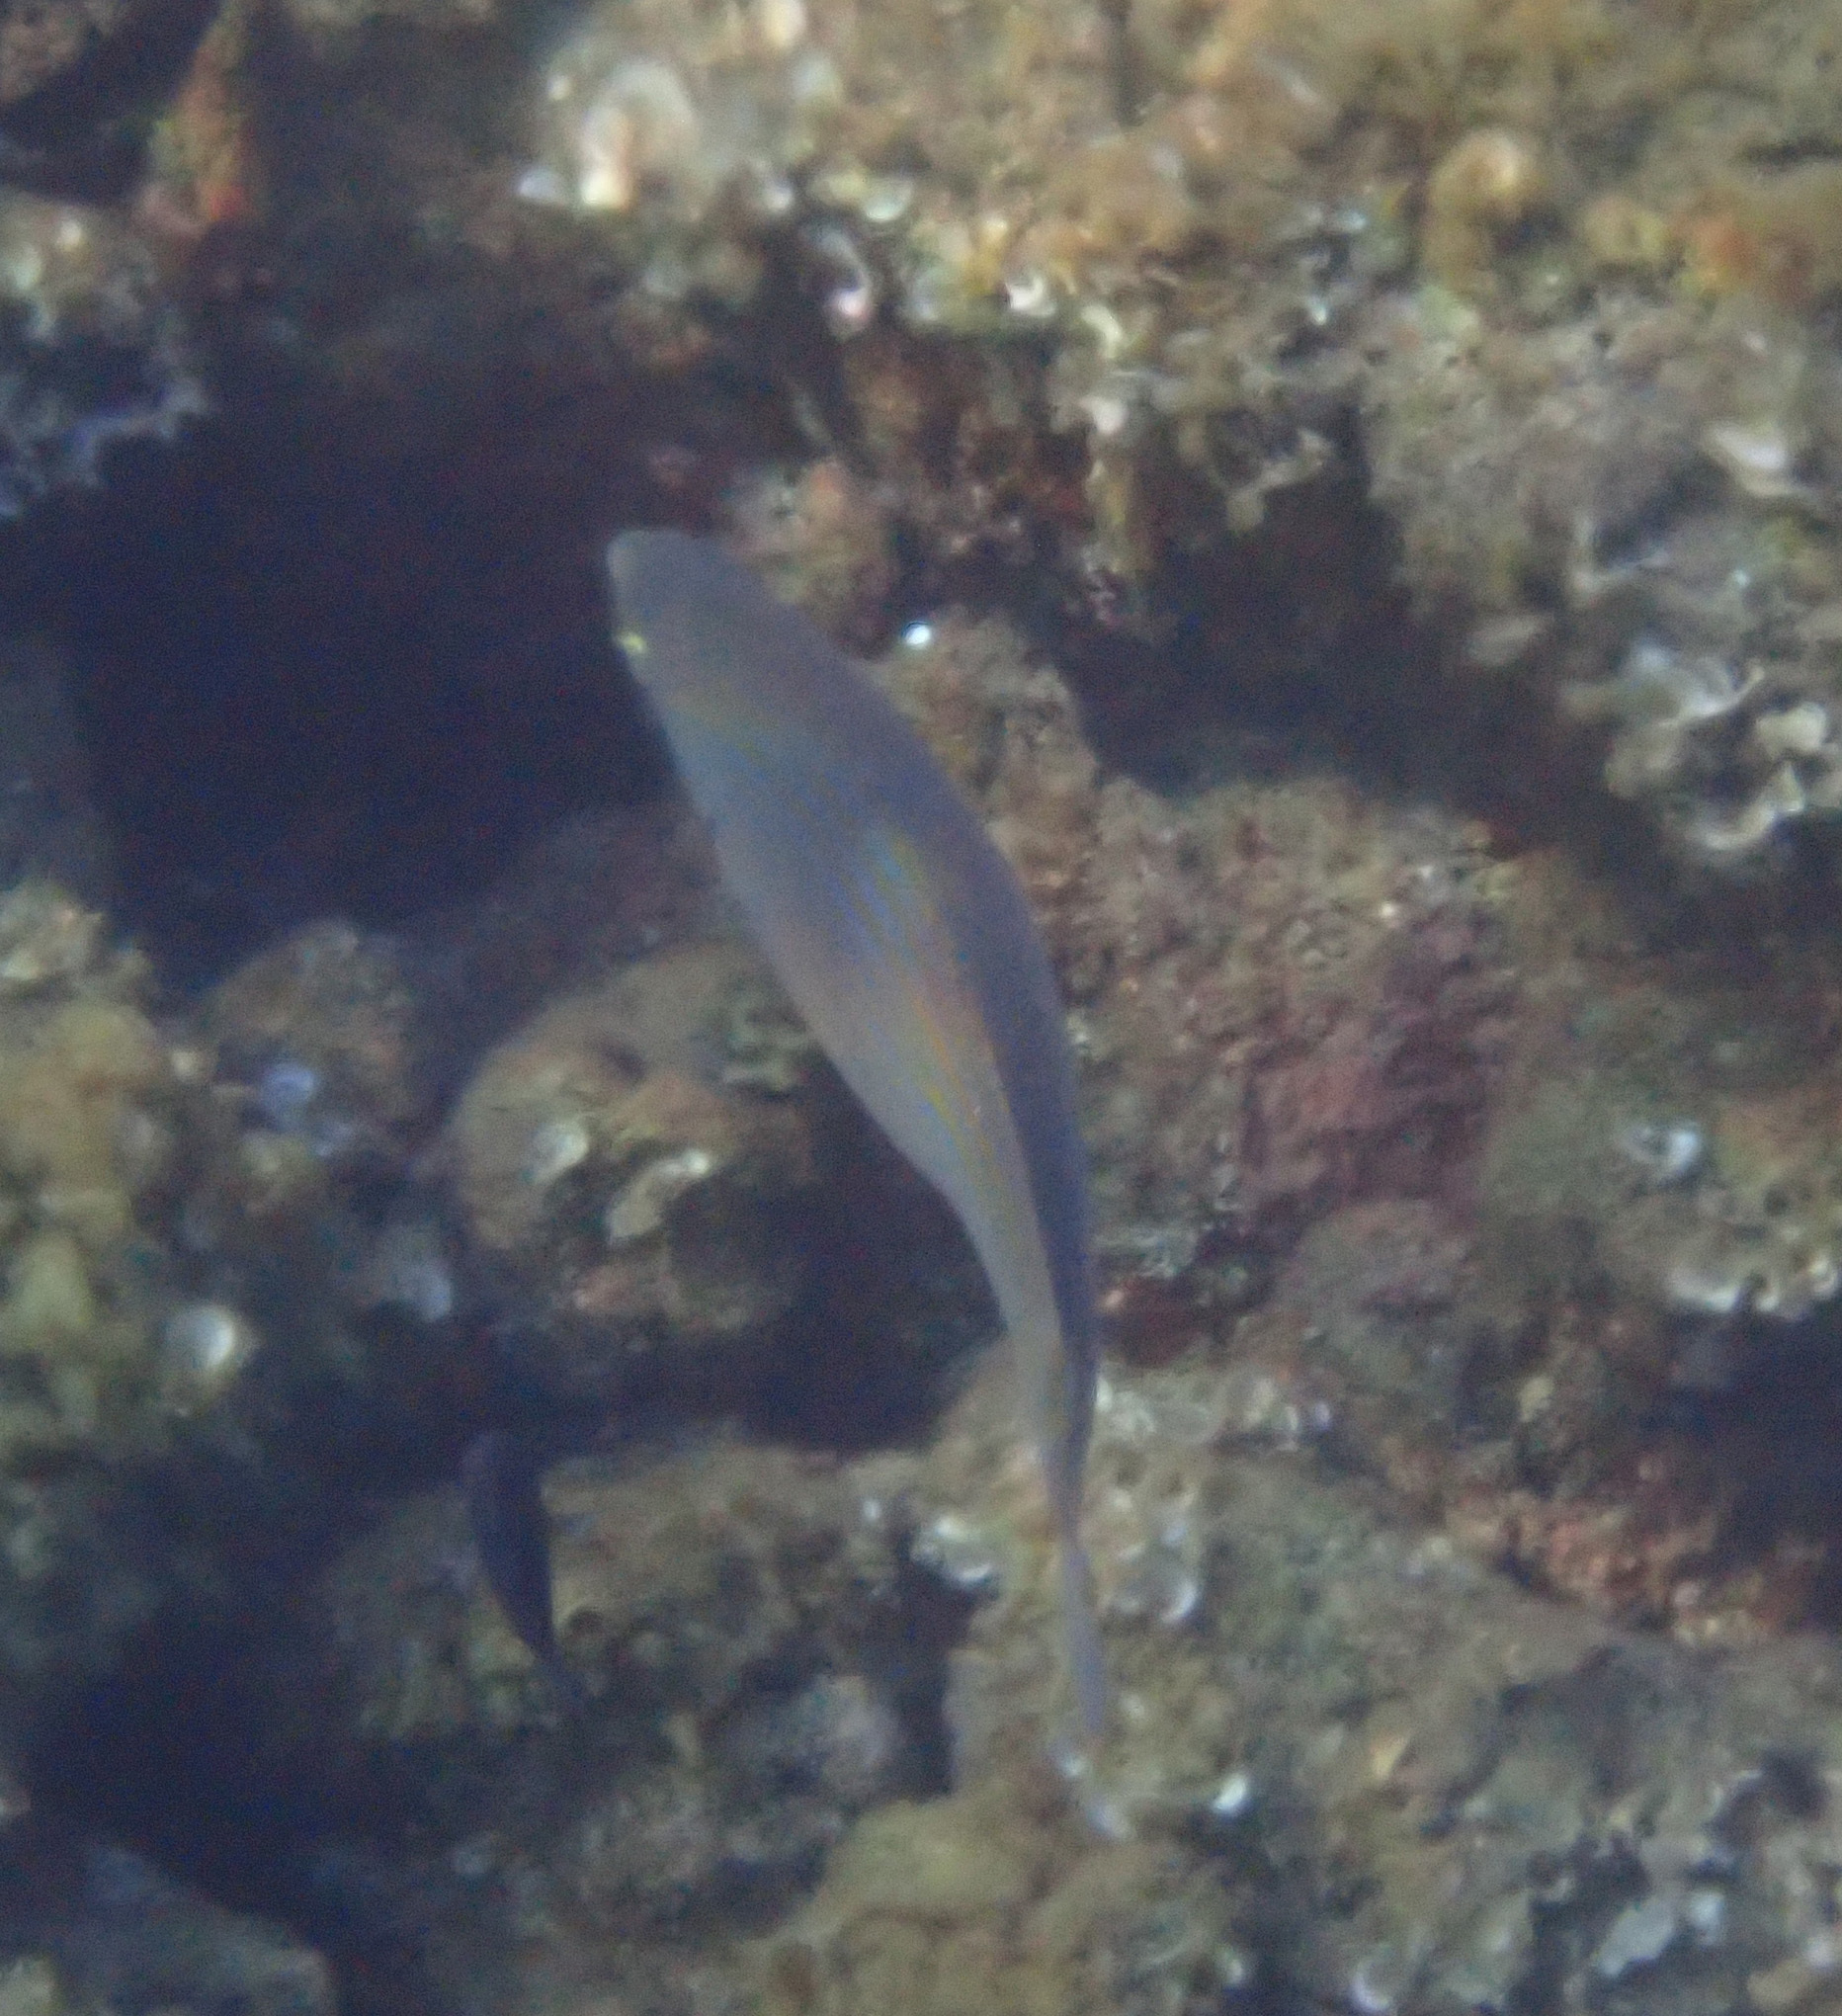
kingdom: Animalia
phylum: Chordata
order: Perciformes
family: Sparidae
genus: Sarpa
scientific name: Sarpa salpa
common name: Salema
